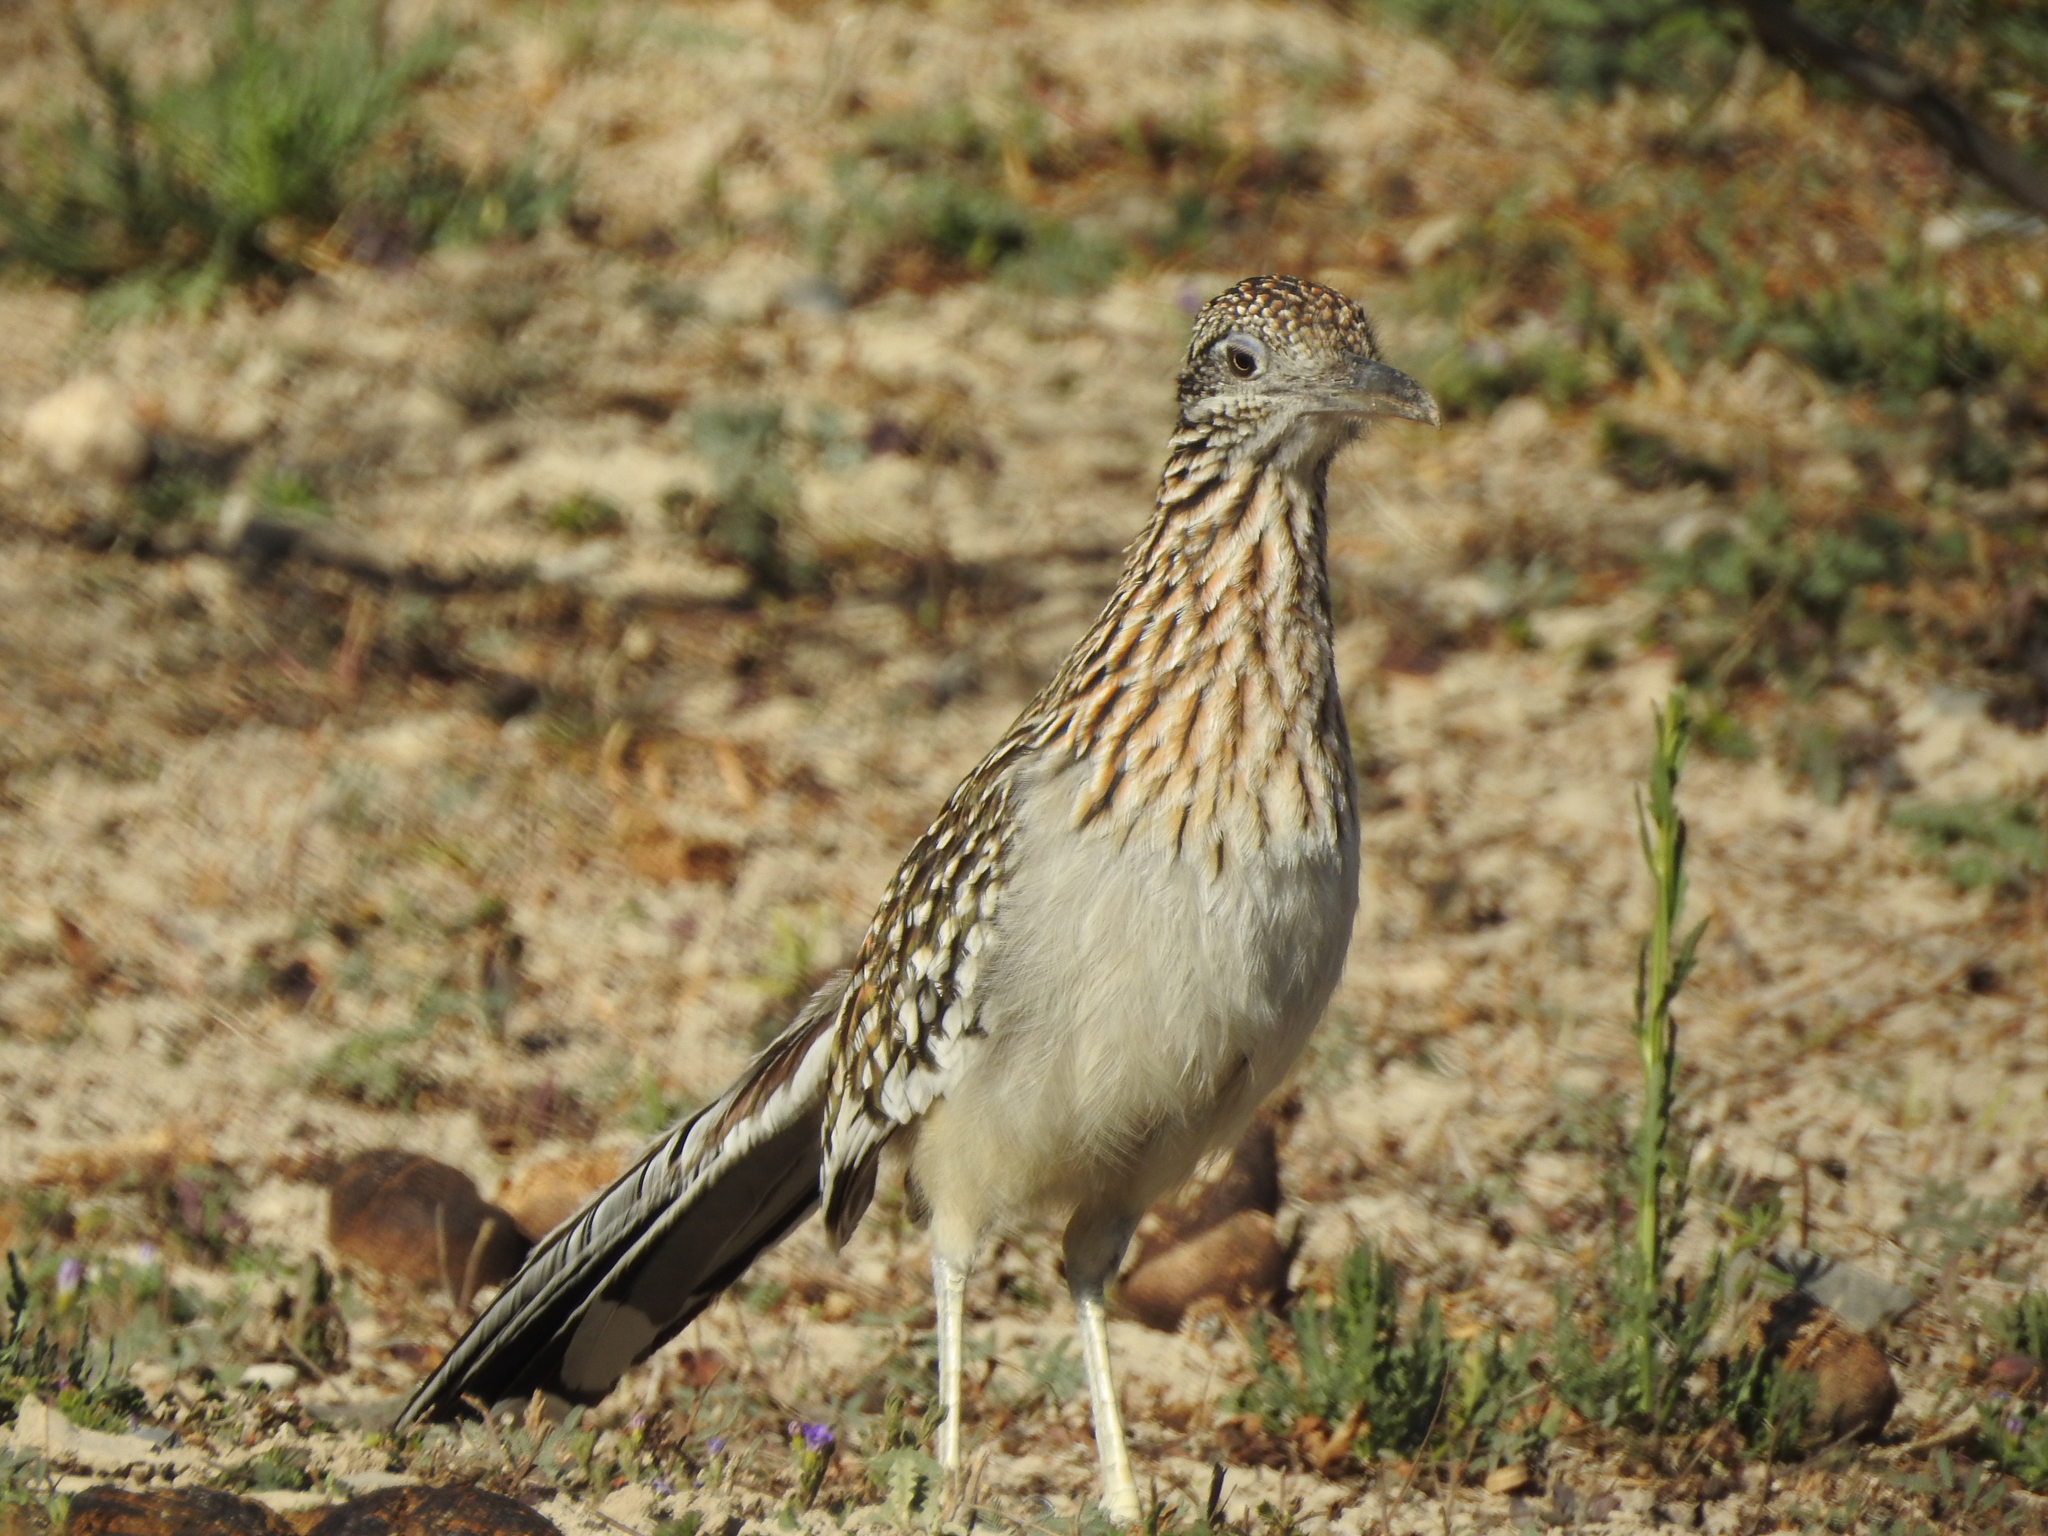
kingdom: Animalia
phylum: Chordata
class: Aves
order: Cuculiformes
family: Cuculidae
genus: Geococcyx
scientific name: Geococcyx californianus
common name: Greater roadrunner
